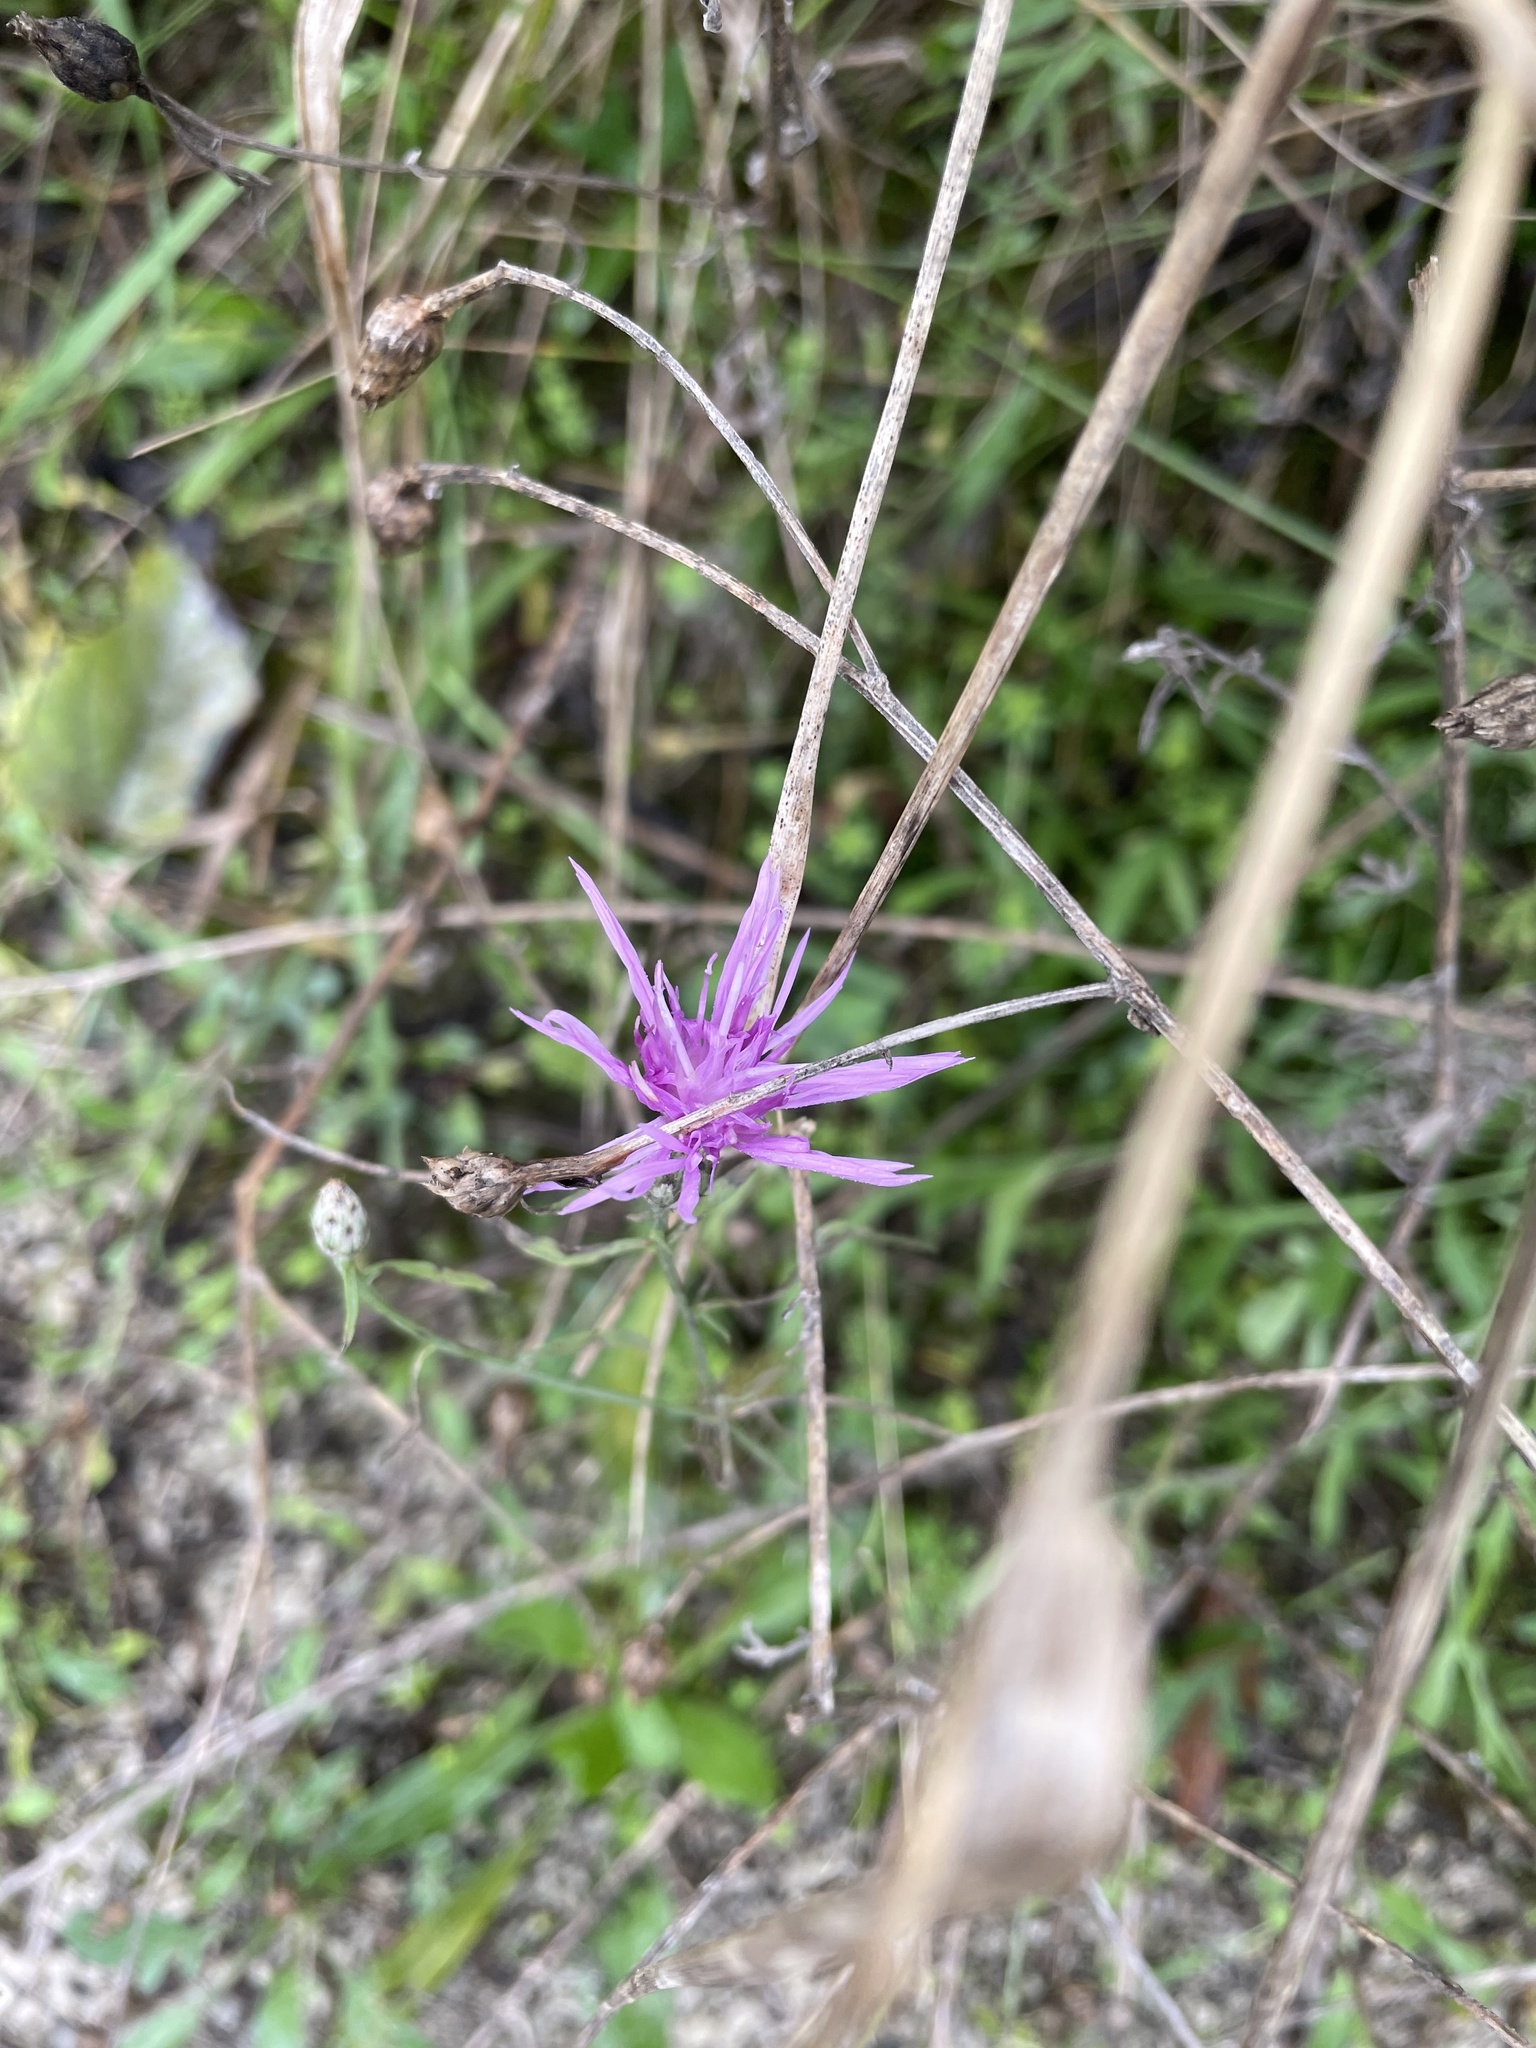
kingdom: Plantae
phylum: Tracheophyta
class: Magnoliopsida
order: Asterales
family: Asteraceae
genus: Centaurea
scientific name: Centaurea stoebe
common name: Spotted knapweed
